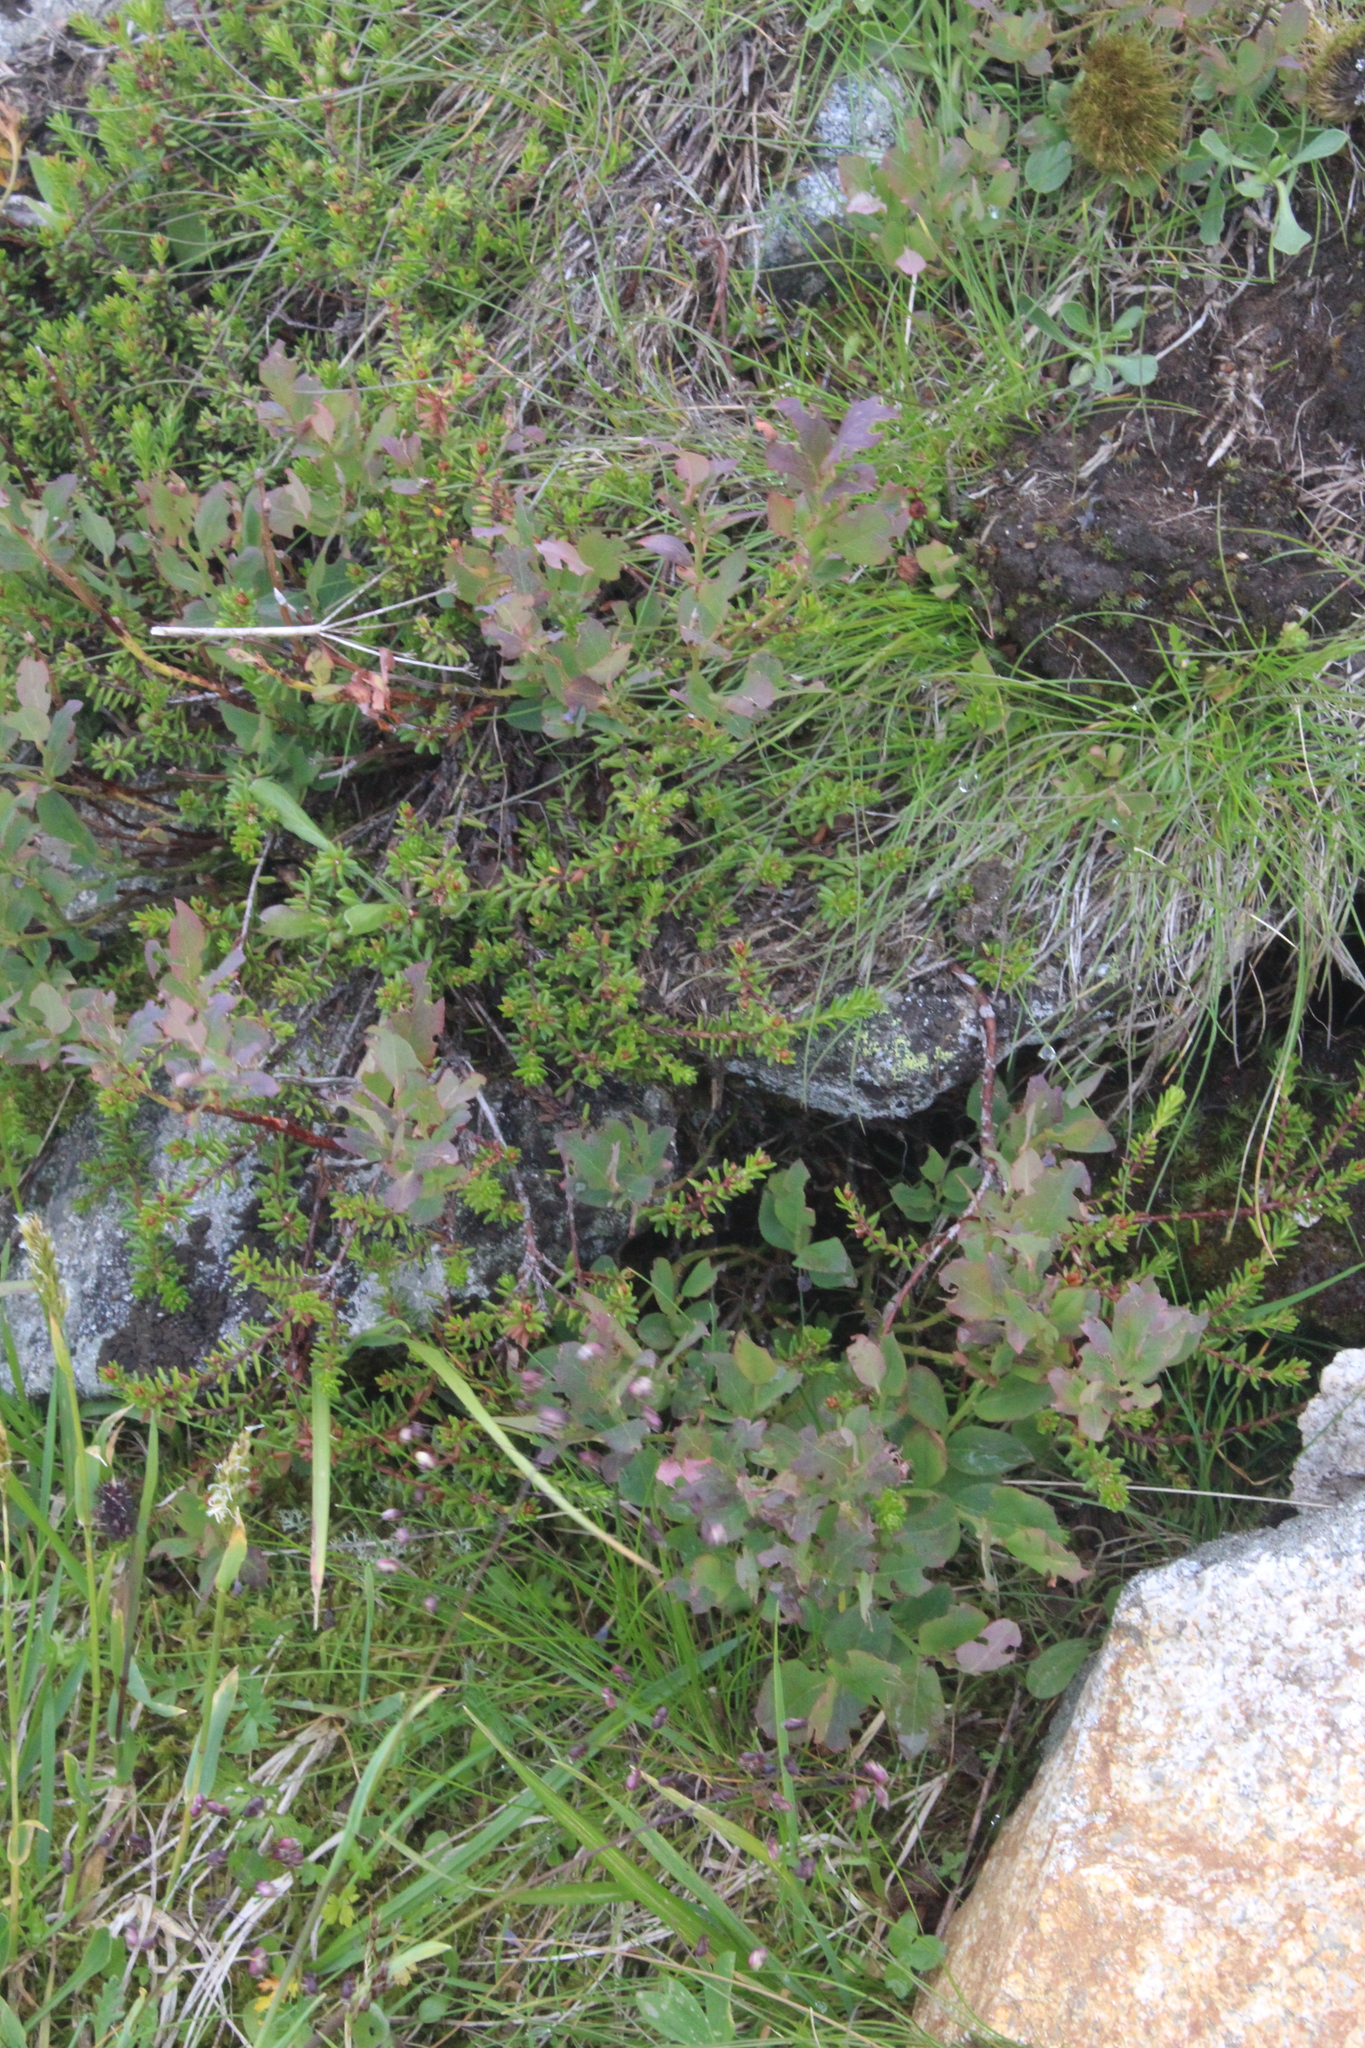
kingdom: Plantae
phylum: Tracheophyta
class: Magnoliopsida
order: Ericales
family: Ericaceae
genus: Vaccinium
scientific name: Vaccinium myrtillus
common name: Bilberry
